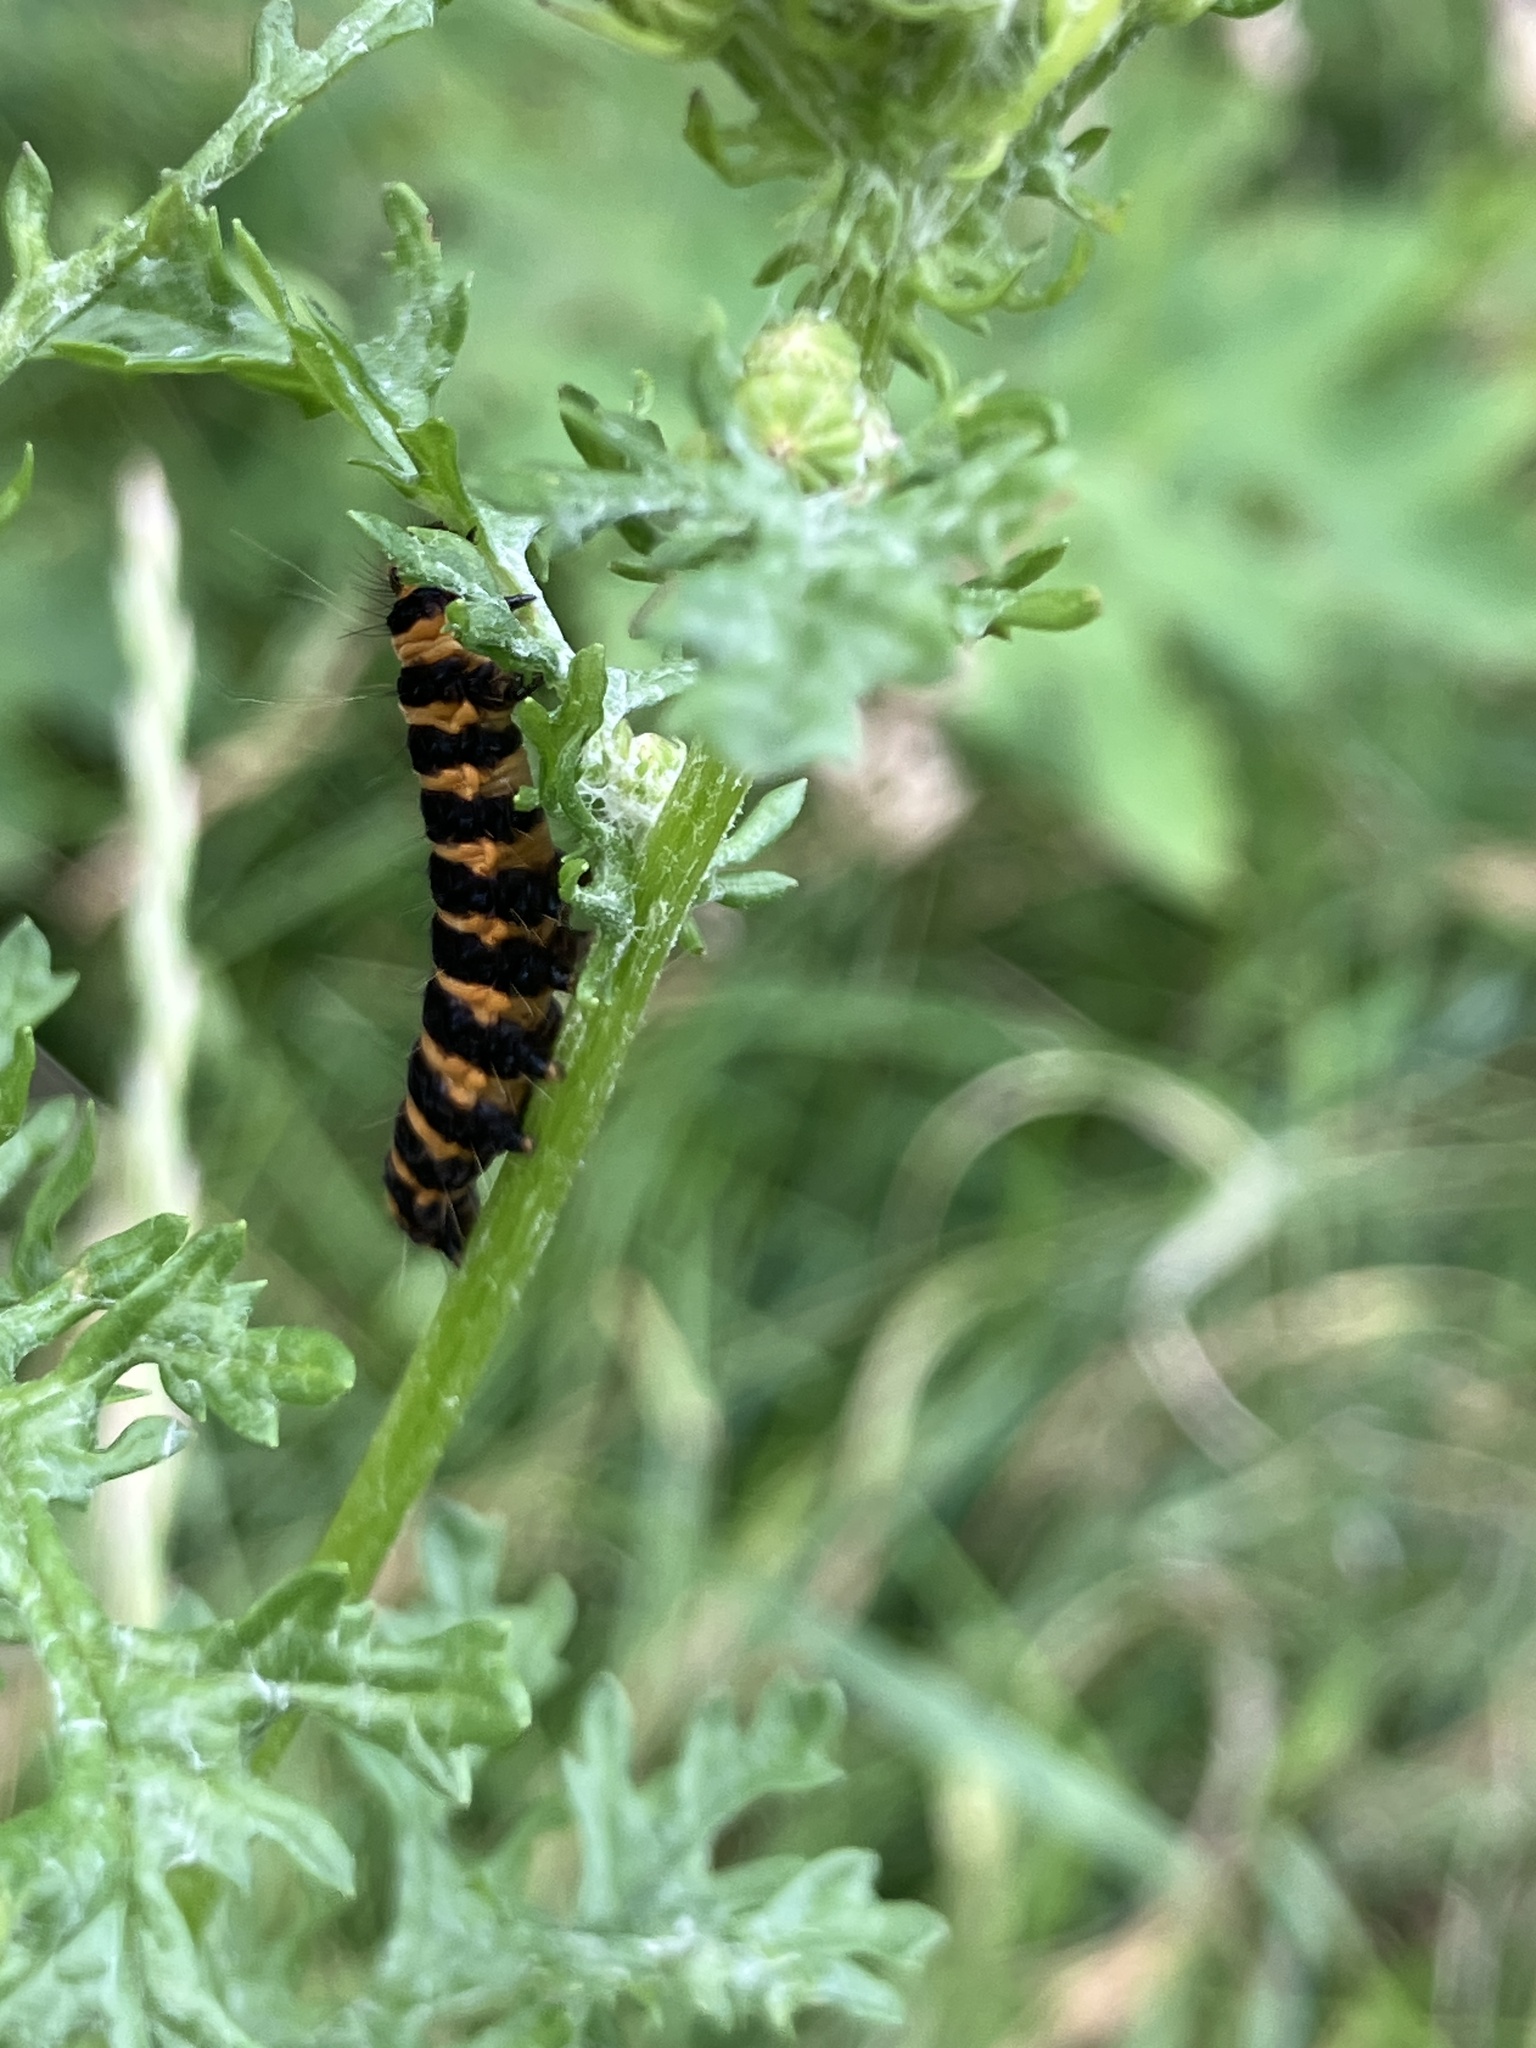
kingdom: Animalia
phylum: Arthropoda
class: Insecta
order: Lepidoptera
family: Erebidae
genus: Tyria
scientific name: Tyria jacobaeae
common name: Cinnabar
